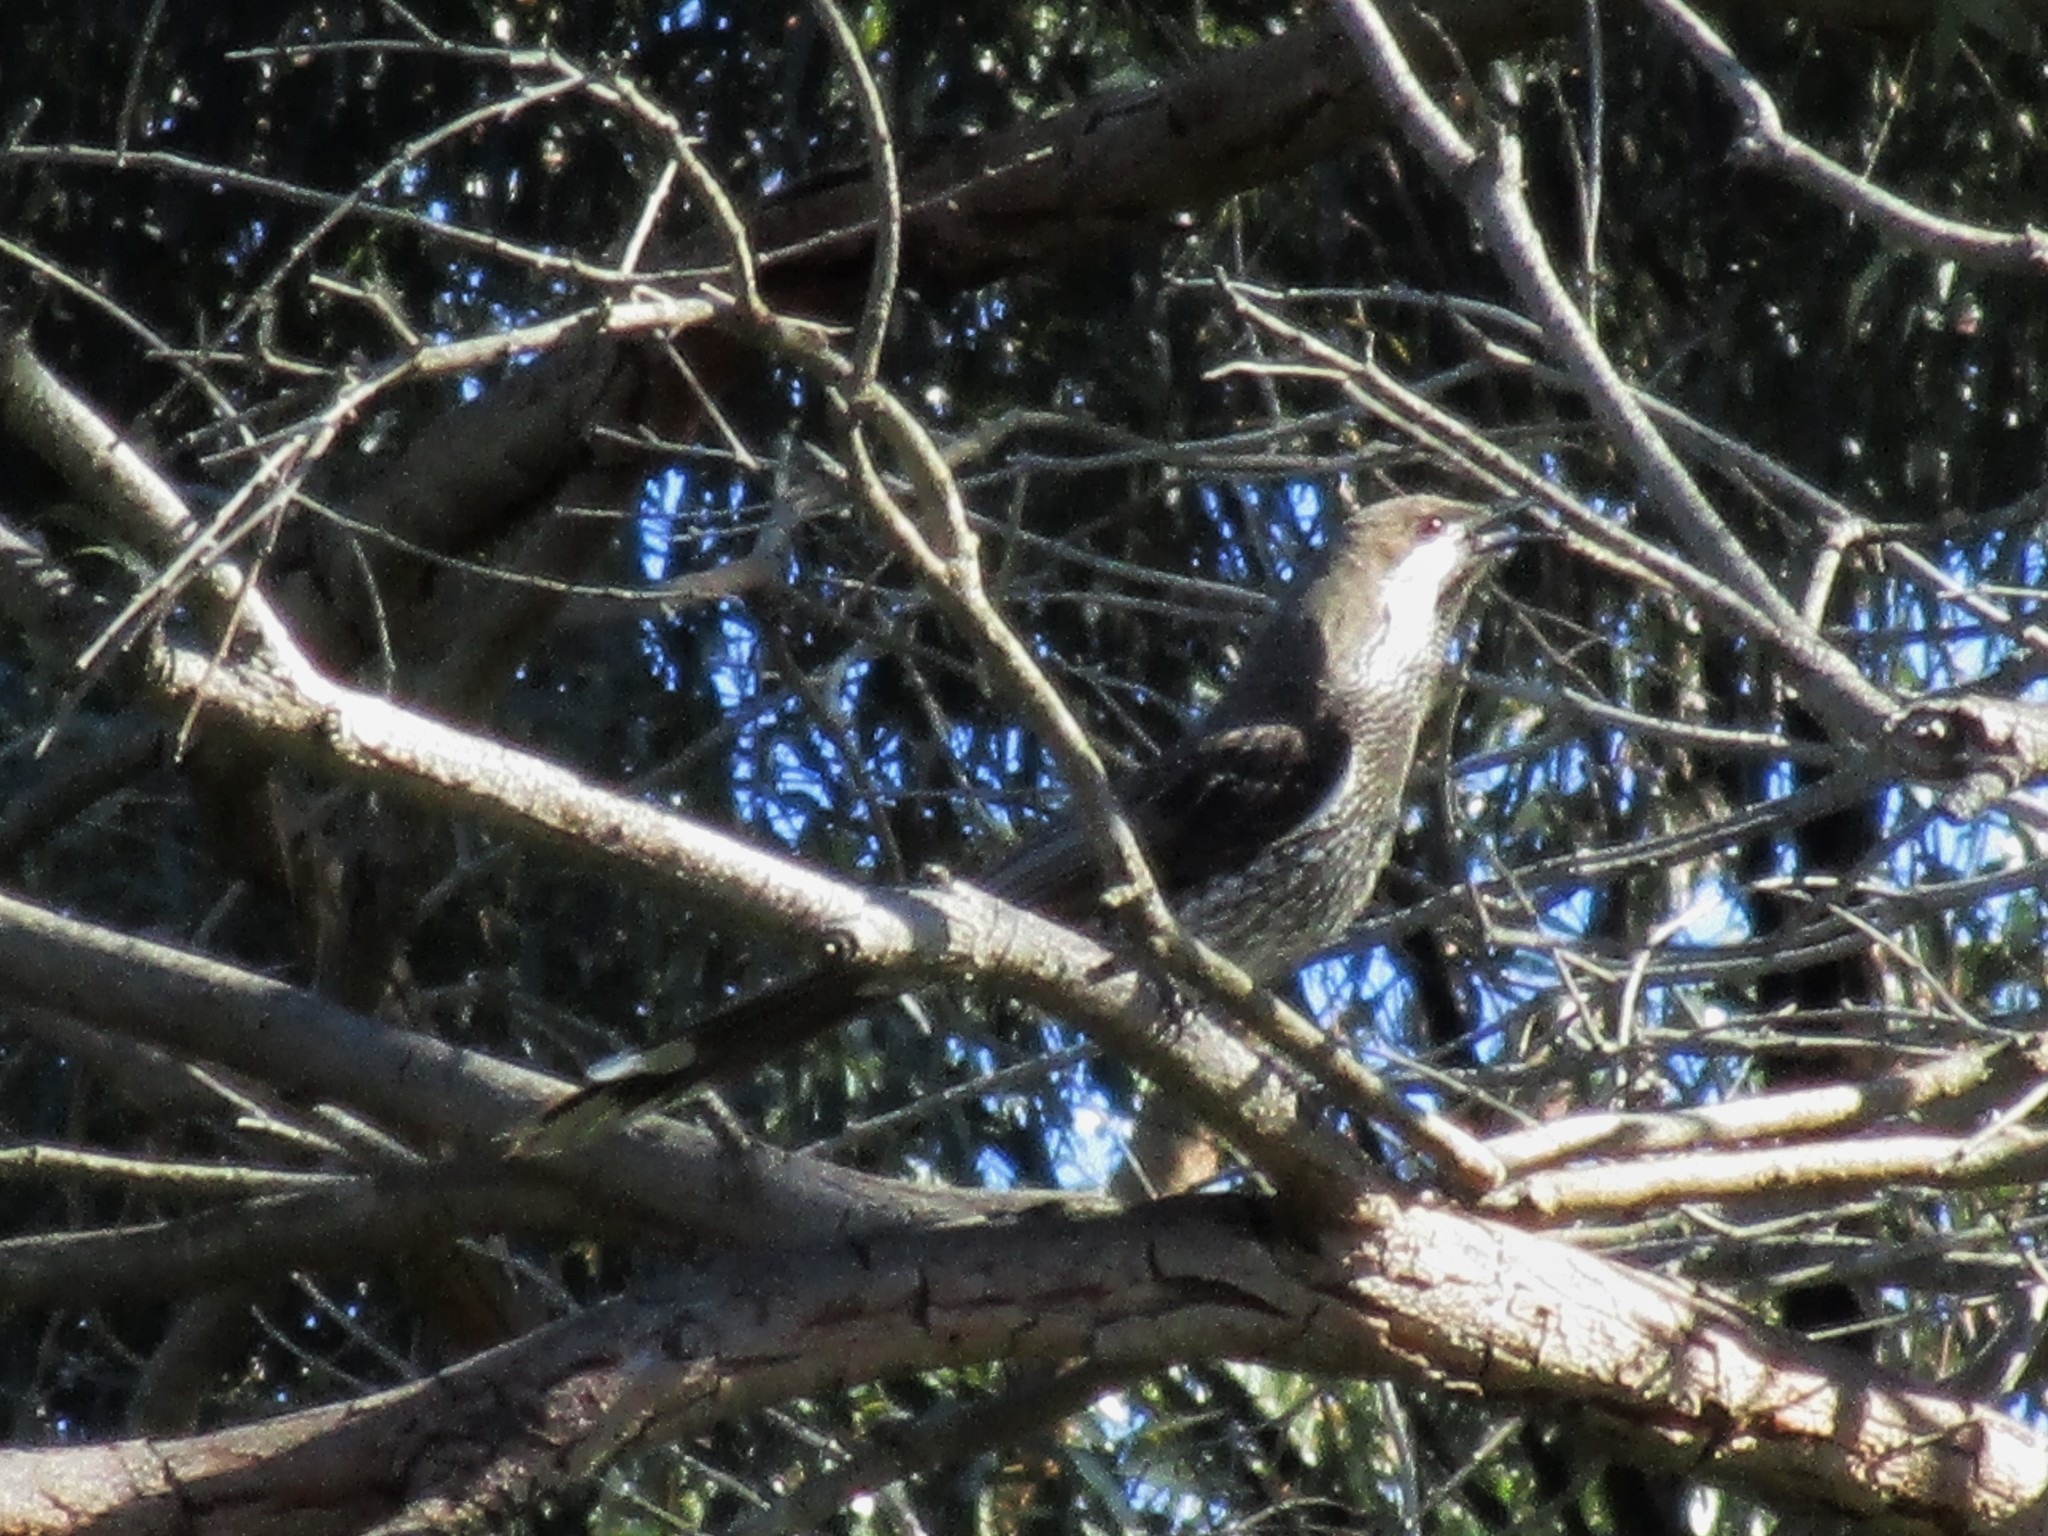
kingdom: Animalia
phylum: Chordata
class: Aves
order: Passeriformes
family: Meliphagidae
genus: Anthochaera
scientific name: Anthochaera lunulata
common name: Western wattlebird
